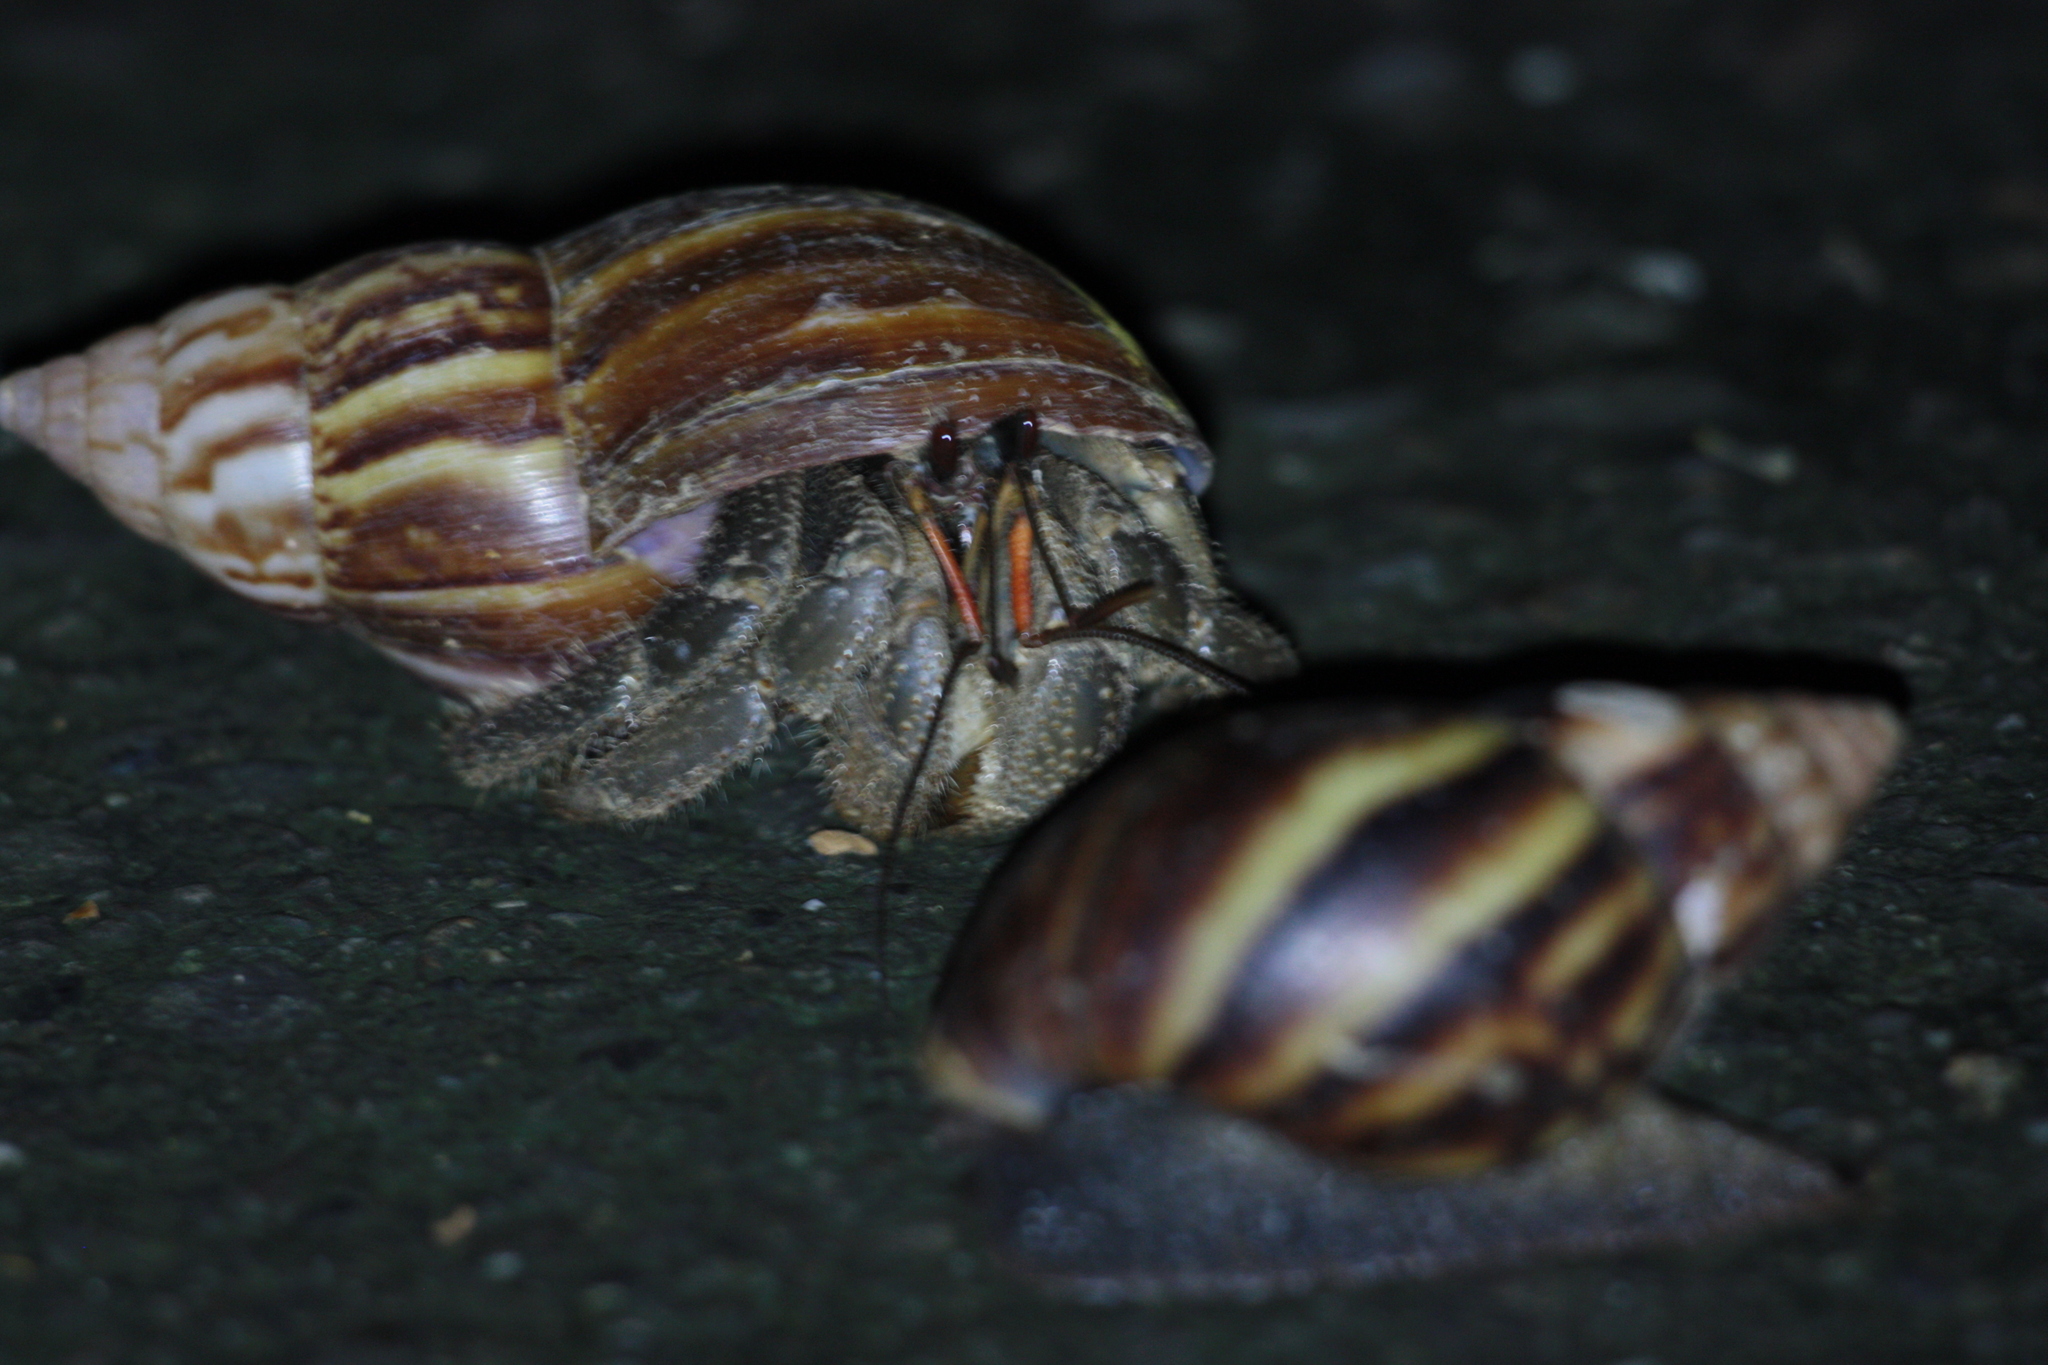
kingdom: Animalia
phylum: Arthropoda
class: Malacostraca
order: Decapoda
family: Coenobitidae
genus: Coenobita
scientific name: Coenobita cavipes
